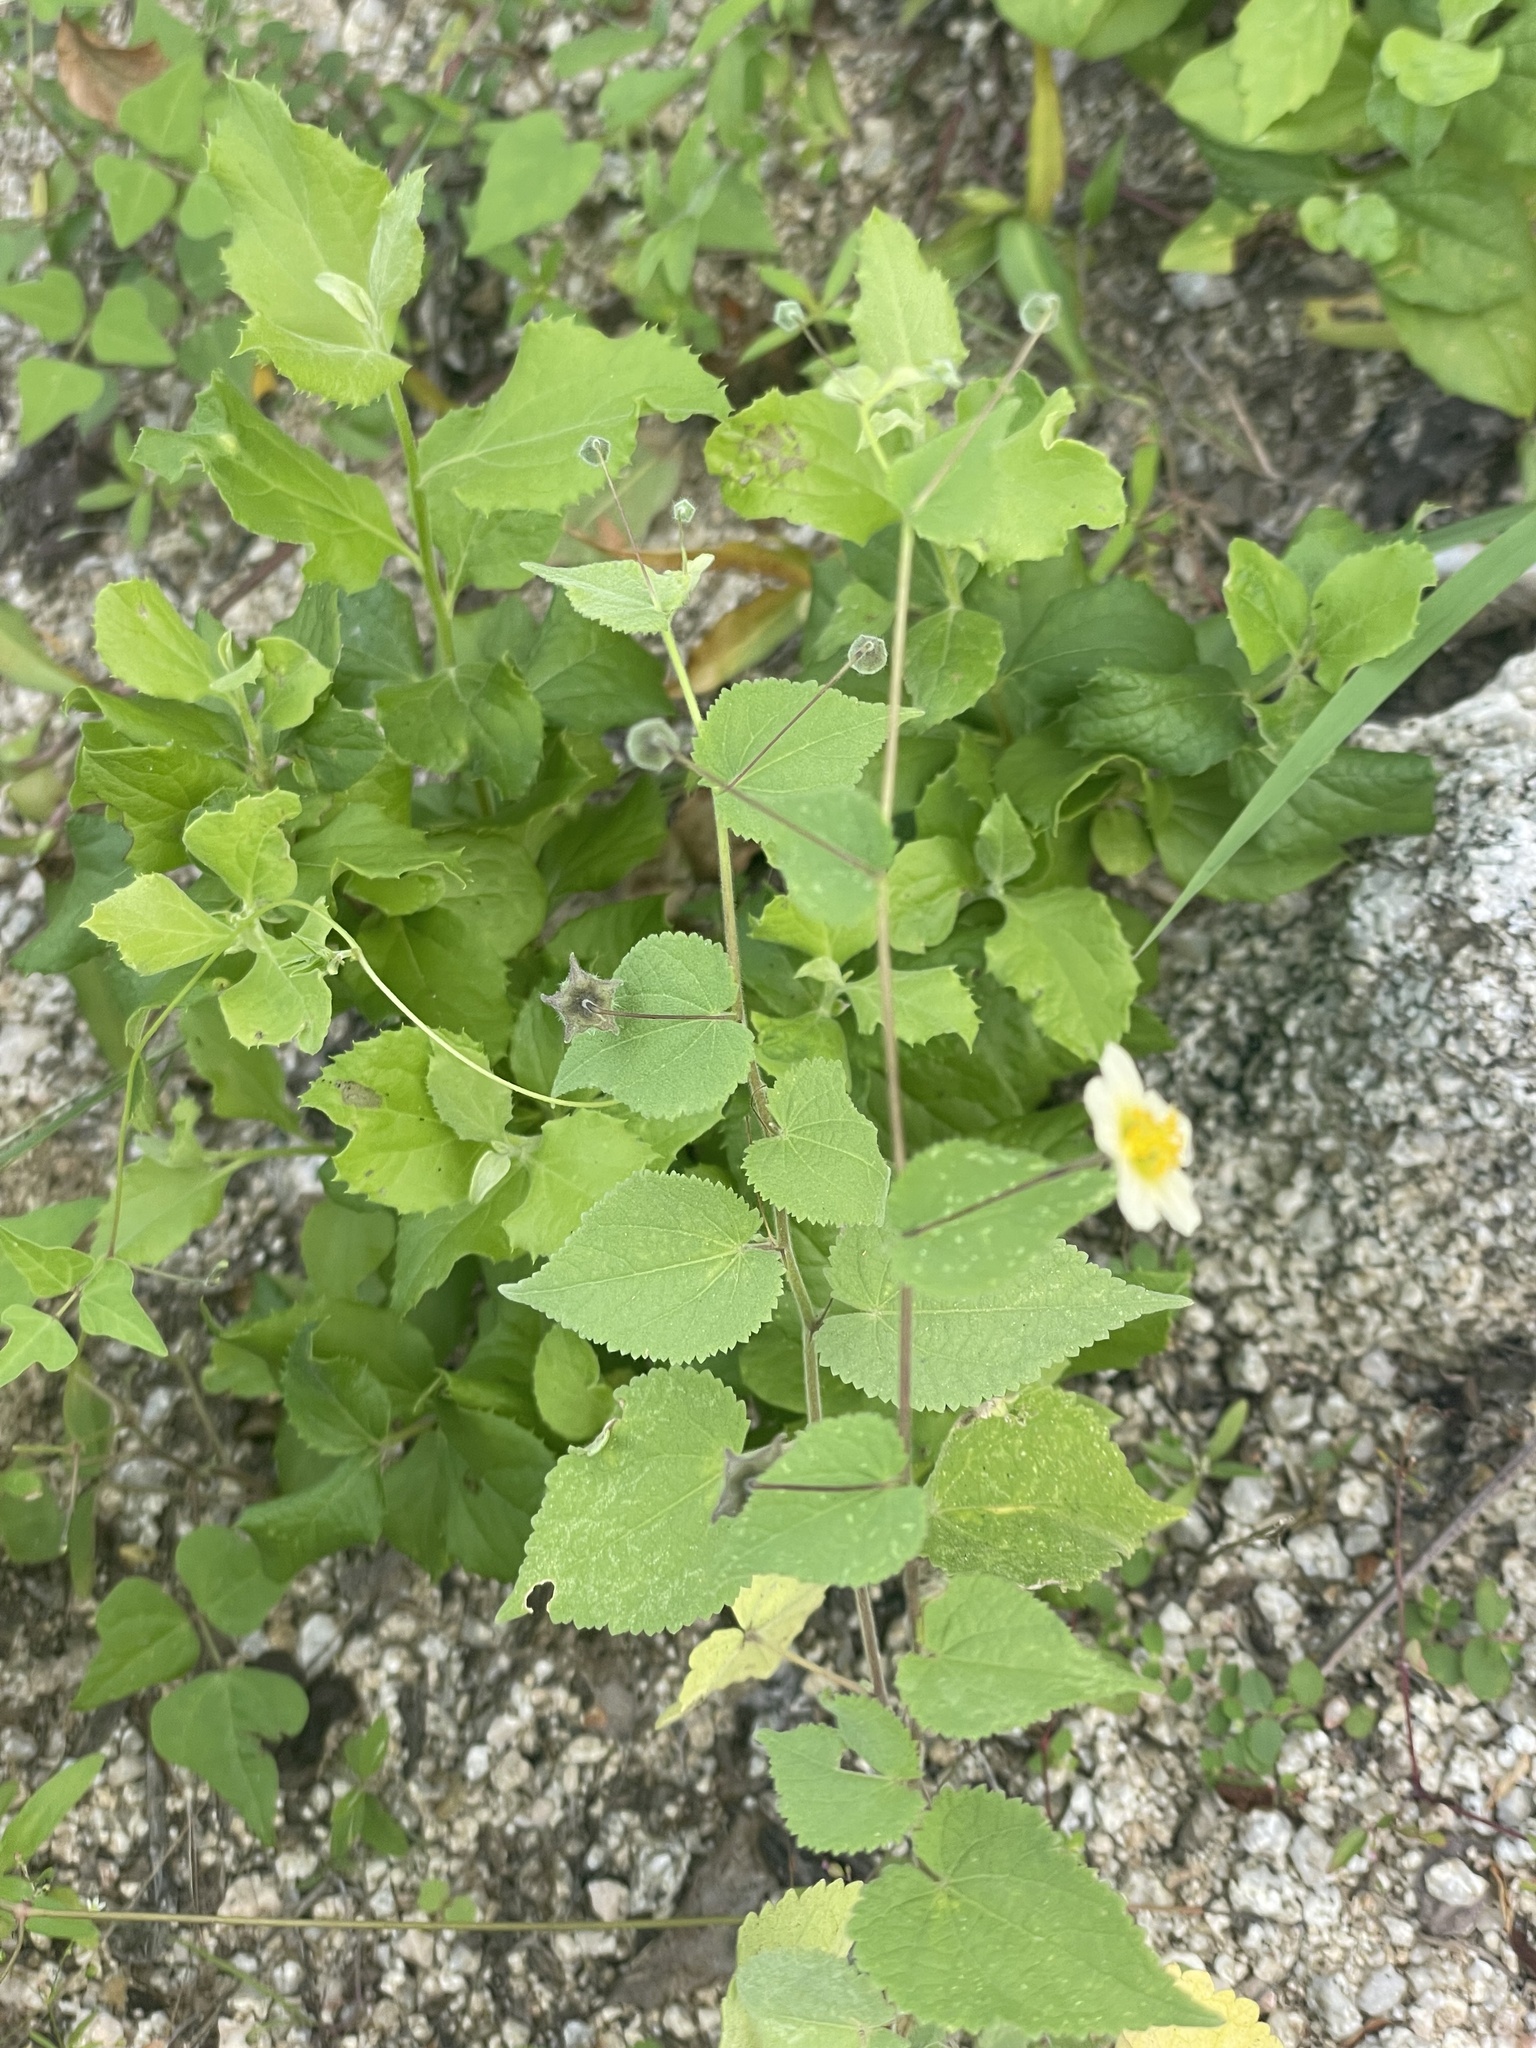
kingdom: Plantae
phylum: Tracheophyta
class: Magnoliopsida
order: Malvales
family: Malvaceae
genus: Herissantia
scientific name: Herissantia crispa
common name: Bladdermallow
